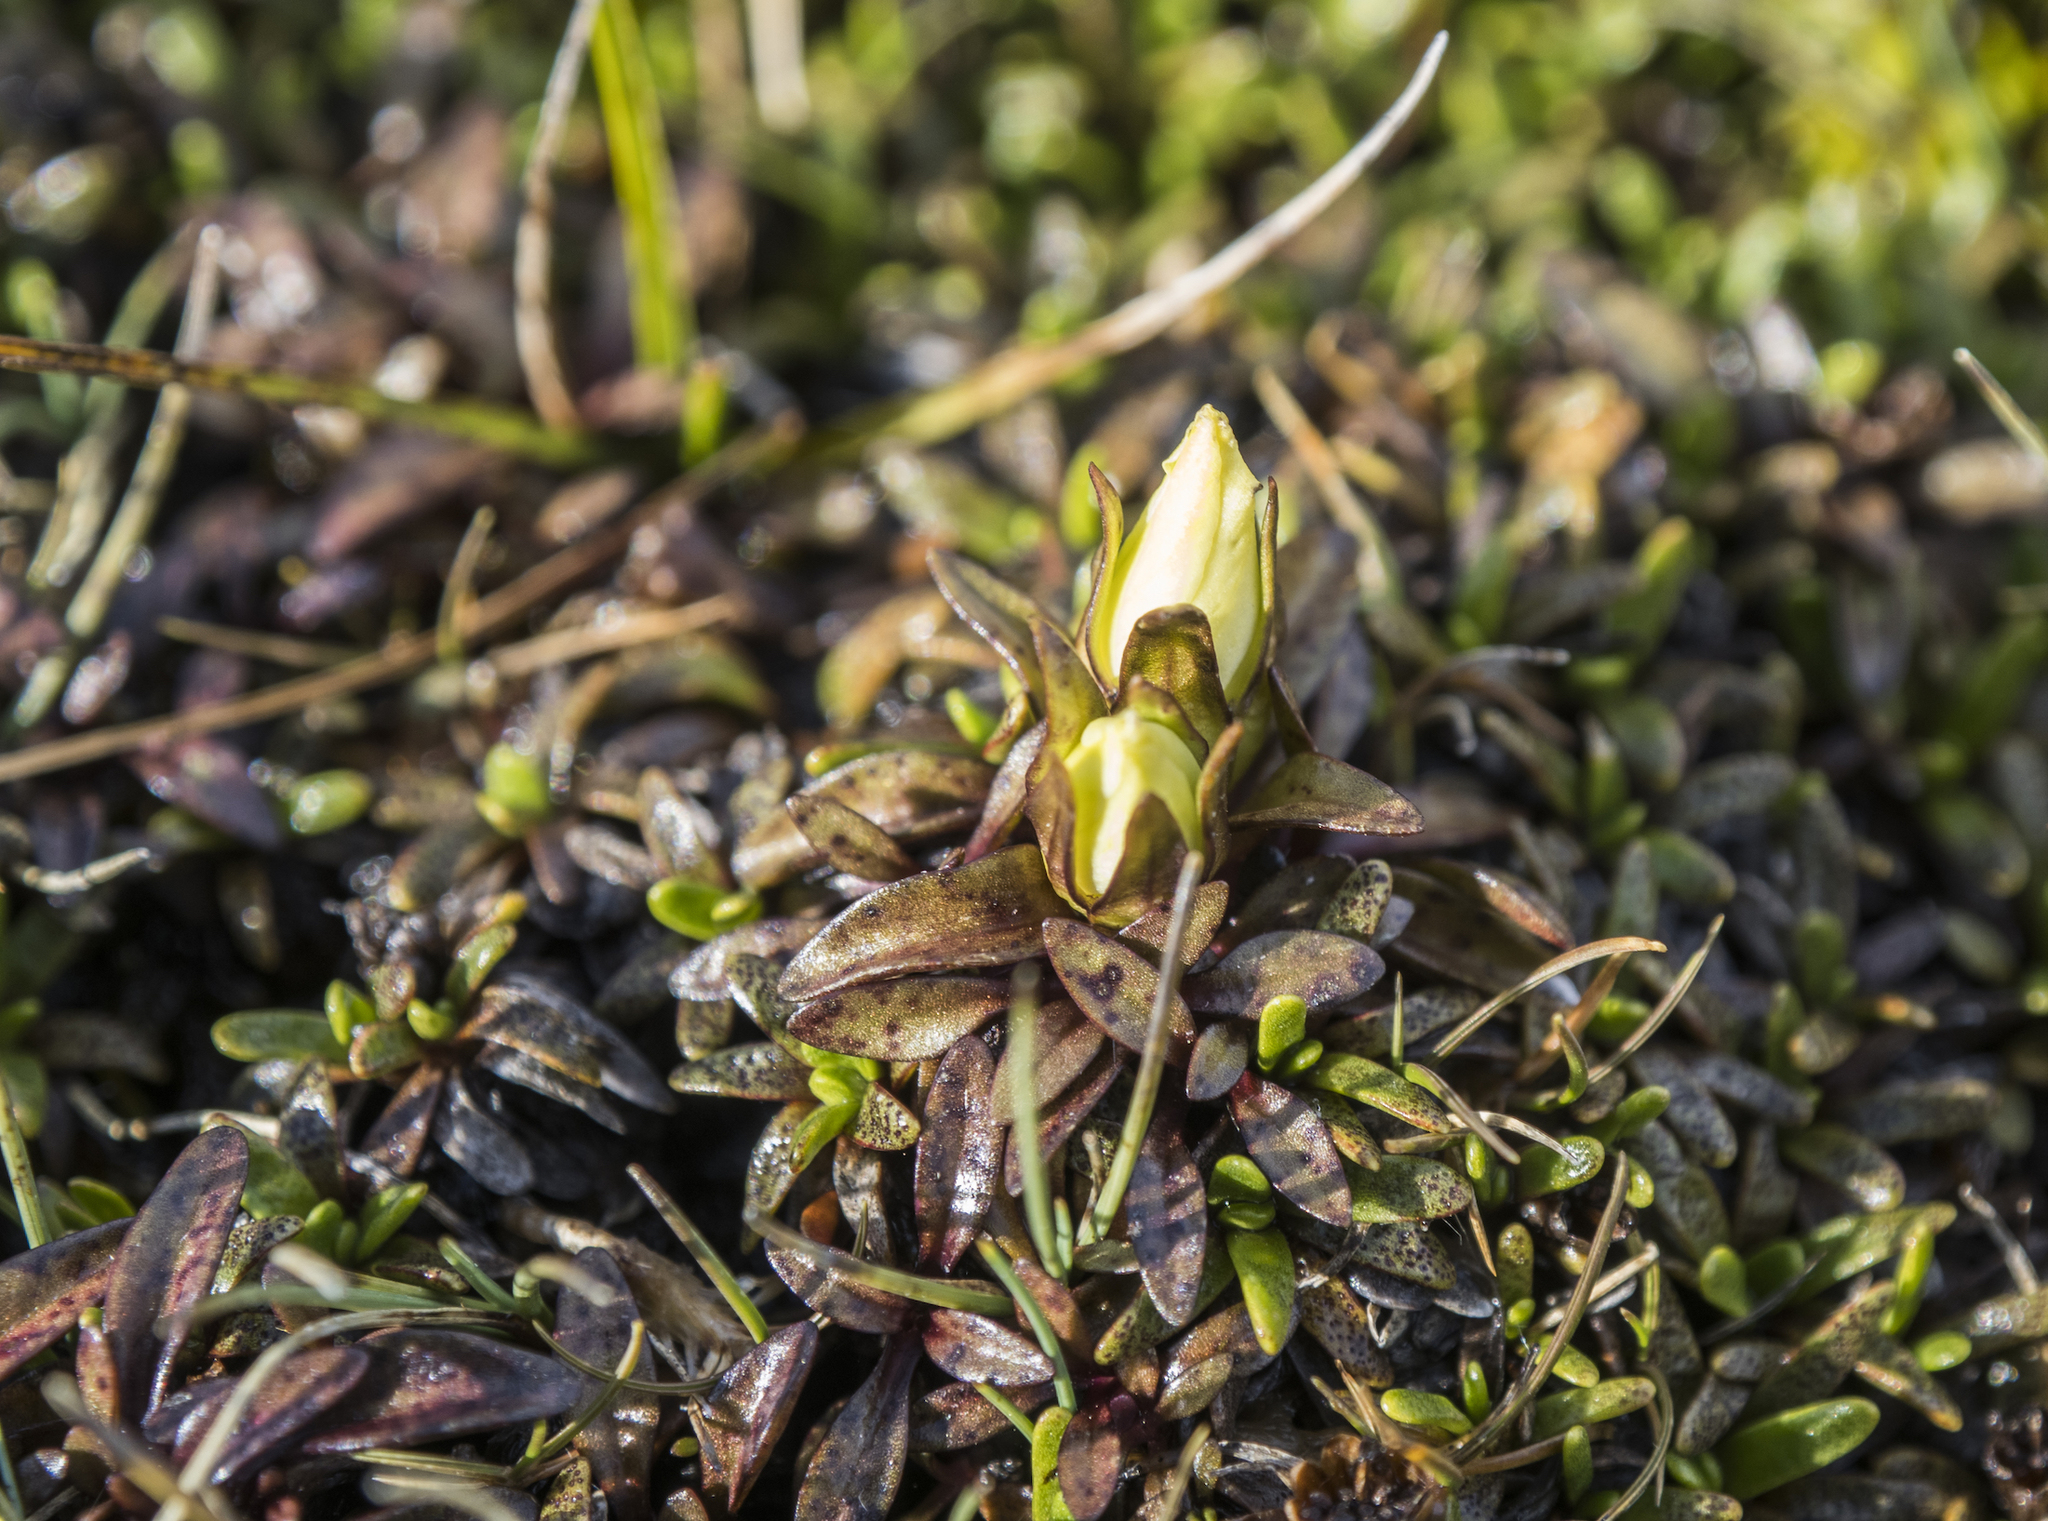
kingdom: Plantae
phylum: Tracheophyta
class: Magnoliopsida
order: Gentianales
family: Gentianaceae
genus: Gentianella
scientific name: Gentianella amabilis
